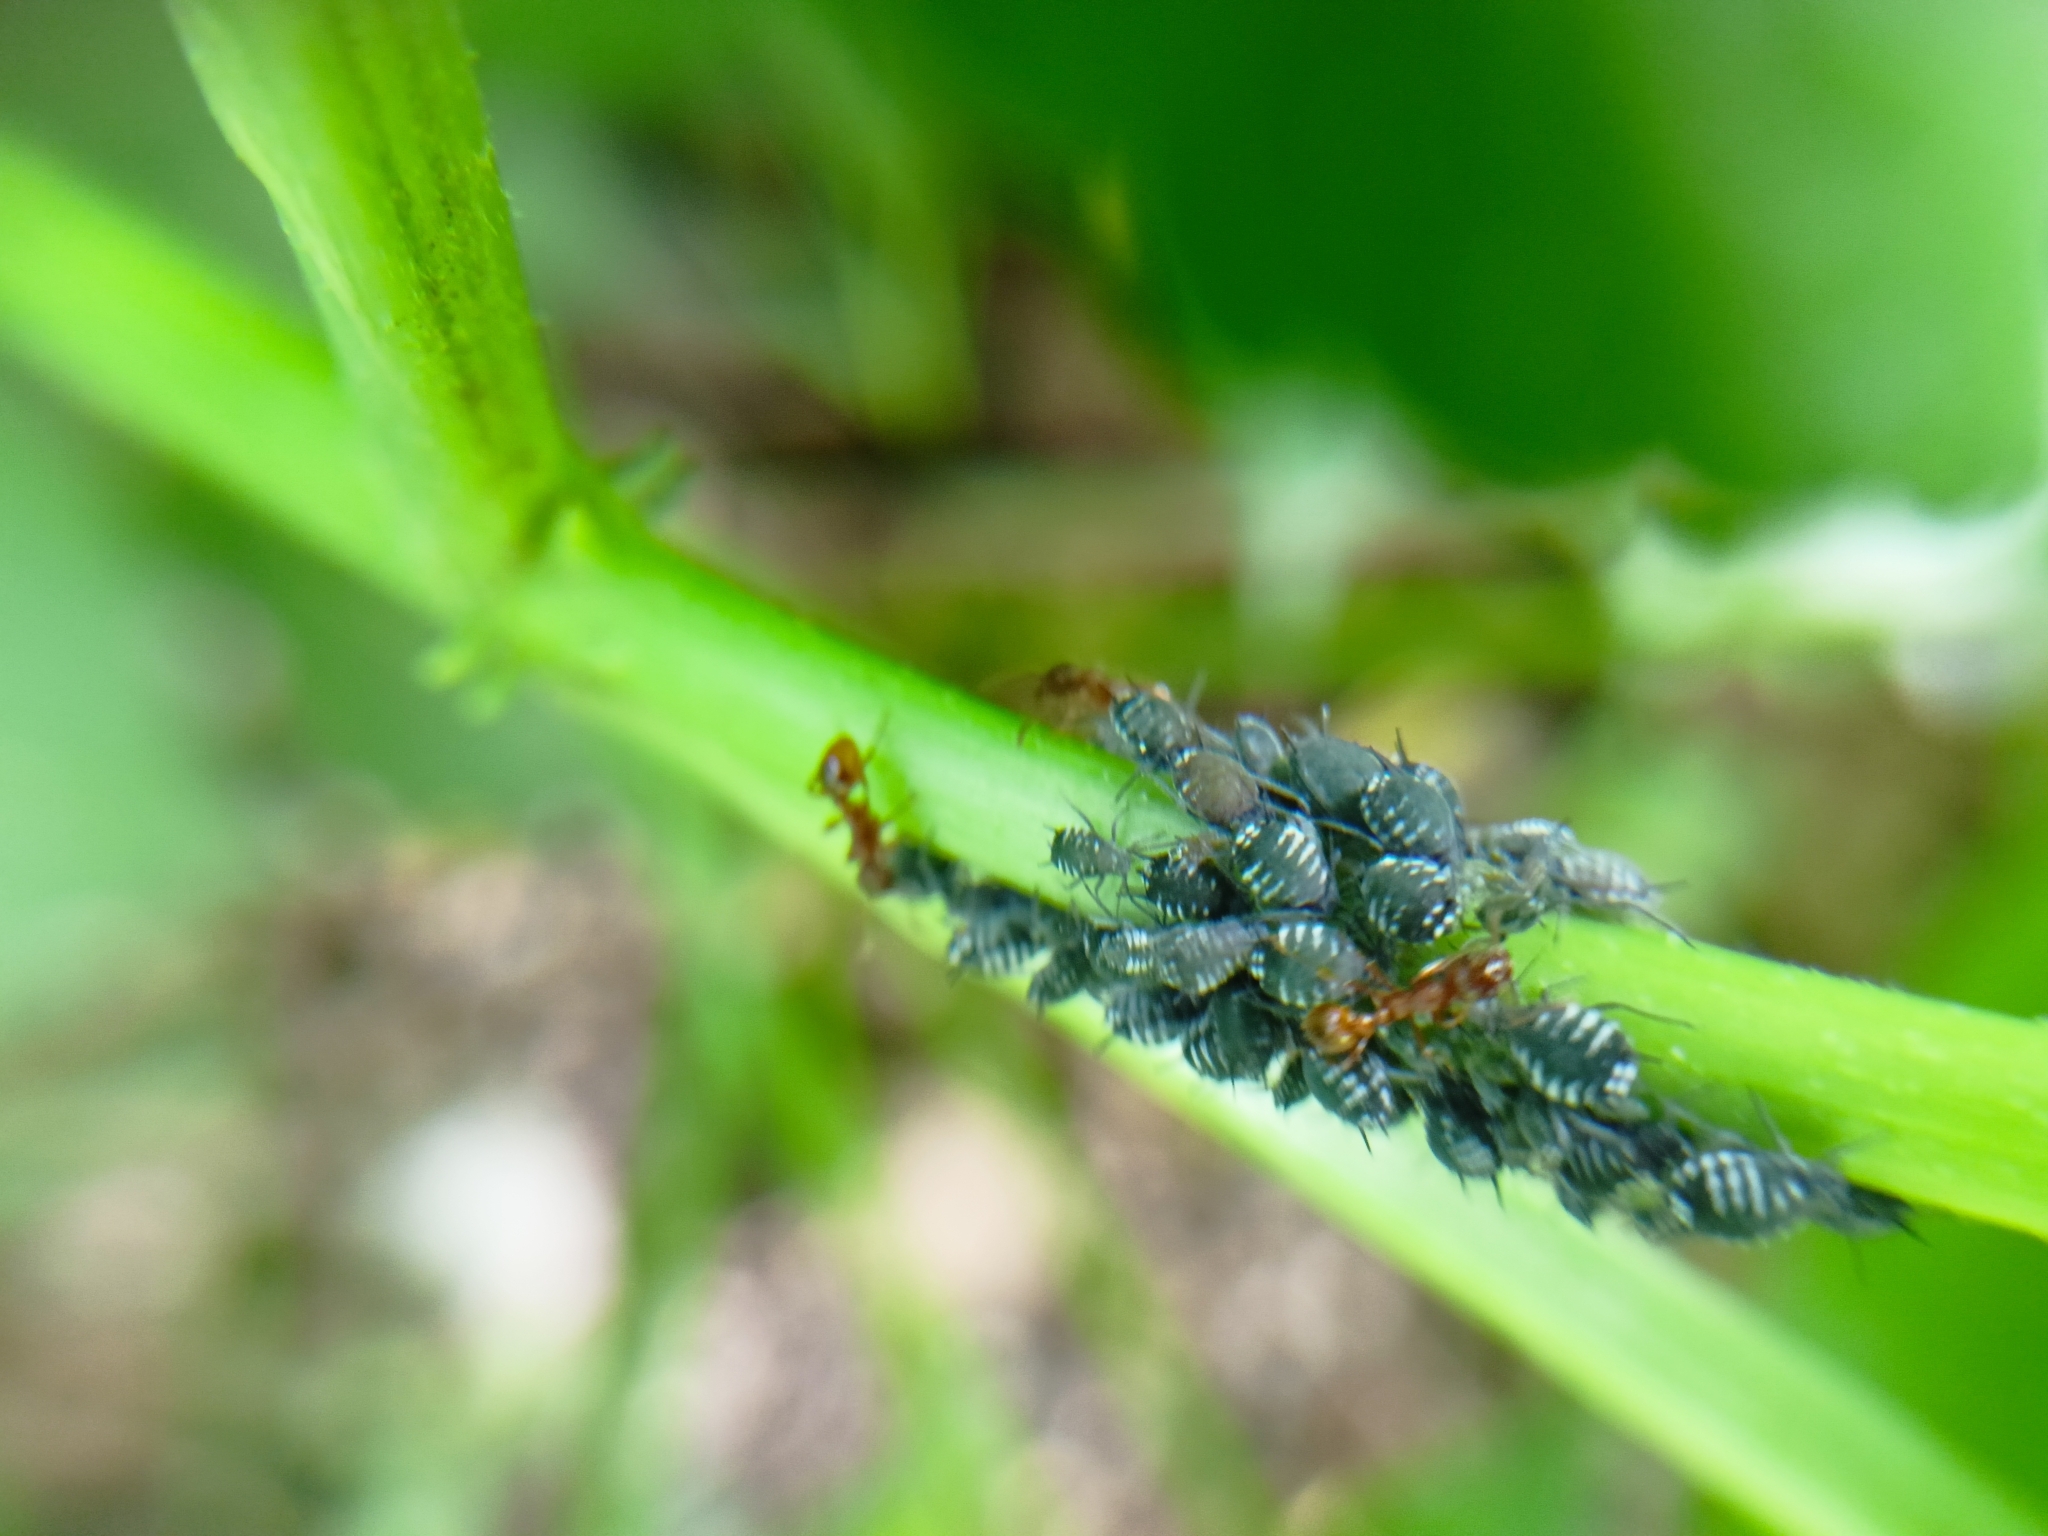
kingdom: Animalia
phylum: Arthropoda
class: Insecta
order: Hemiptera
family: Aphididae
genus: Aphis
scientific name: Aphis sambuci
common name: Elder aphid
